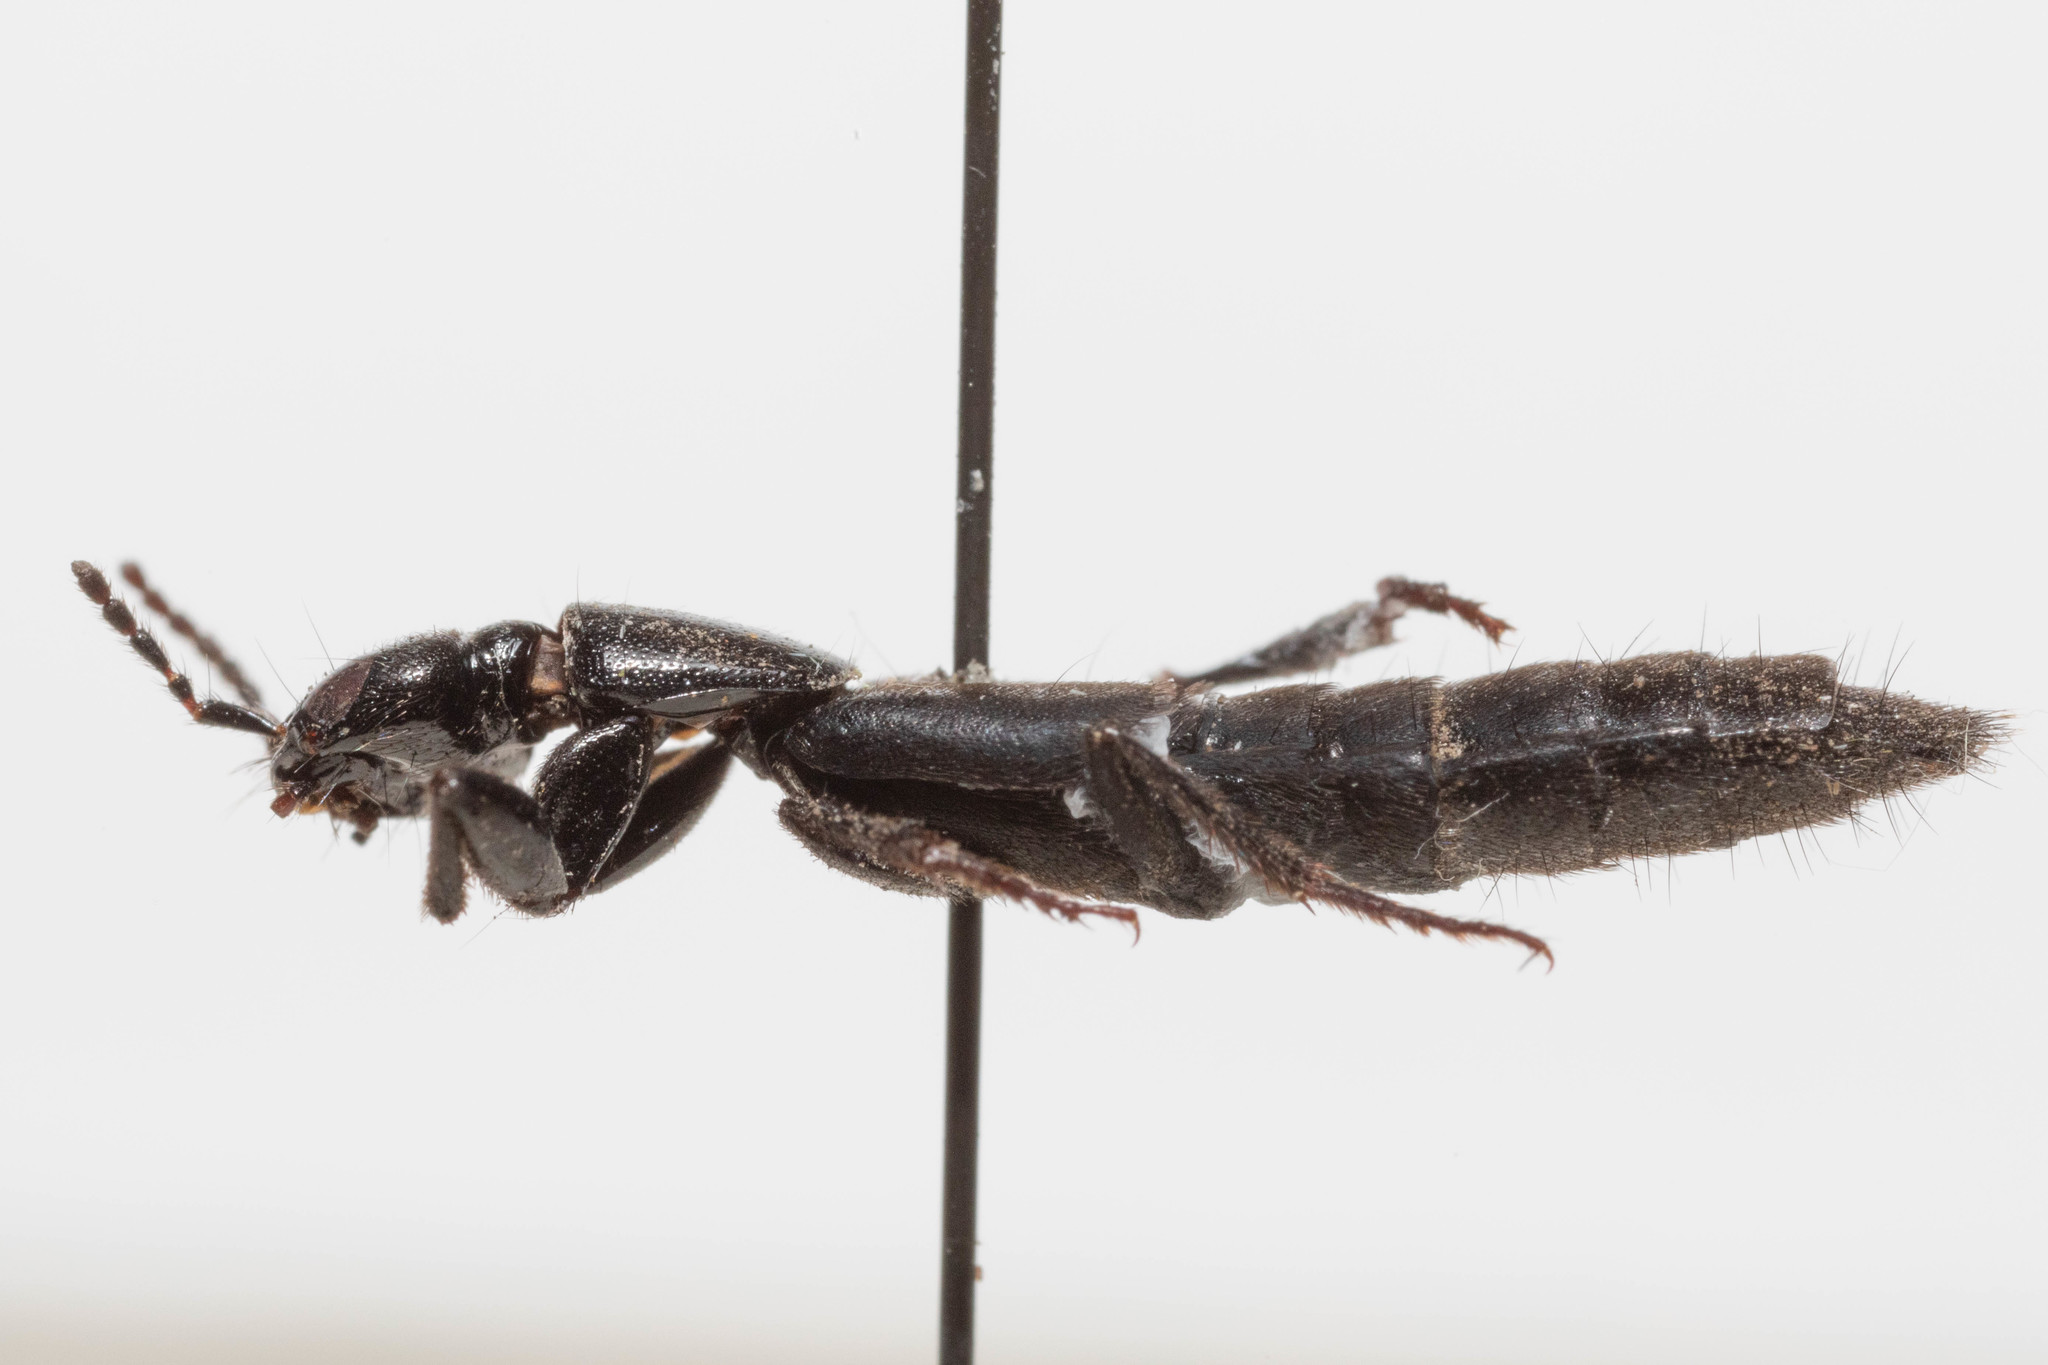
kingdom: Animalia
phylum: Arthropoda
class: Insecta
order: Coleoptera
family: Staphylinidae
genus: Tasgius
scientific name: Tasgius ater
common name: Staph beetle
